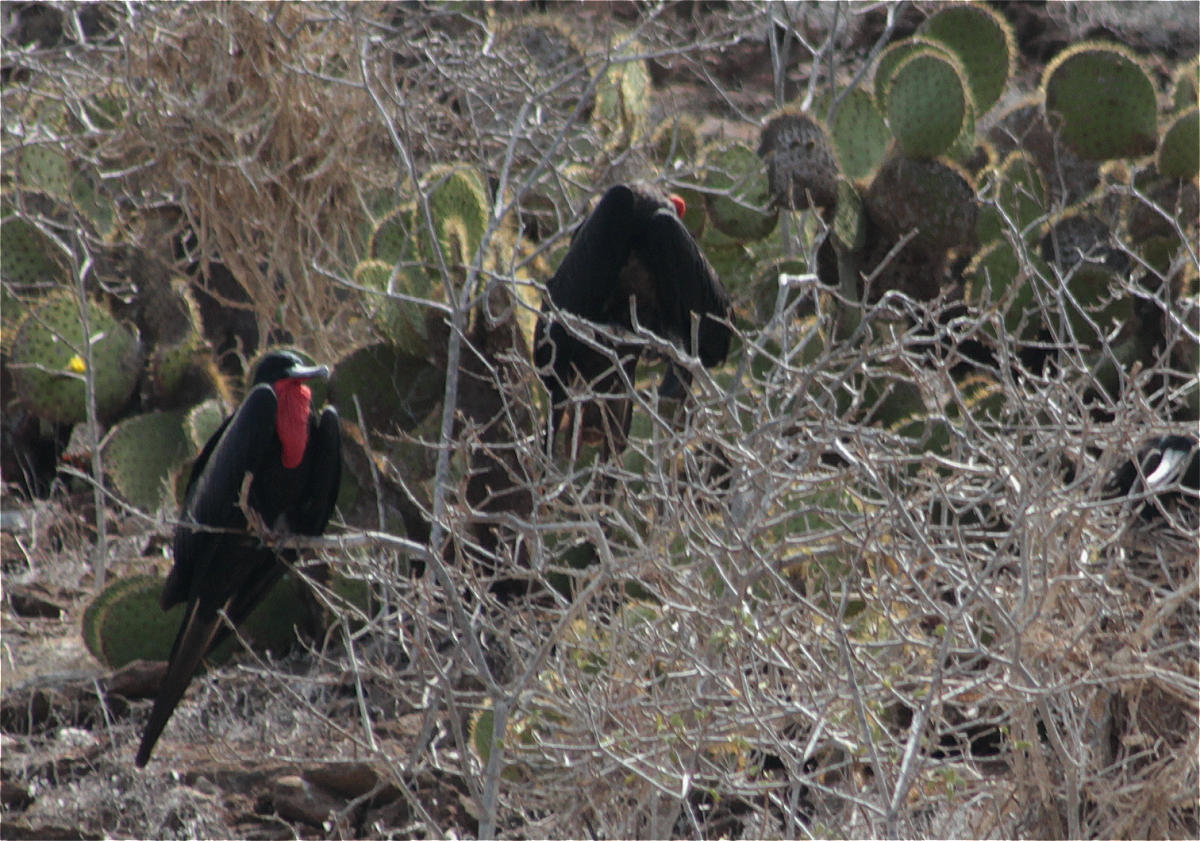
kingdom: Animalia
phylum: Chordata
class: Aves
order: Suliformes
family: Fregatidae
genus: Fregata
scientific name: Fregata
